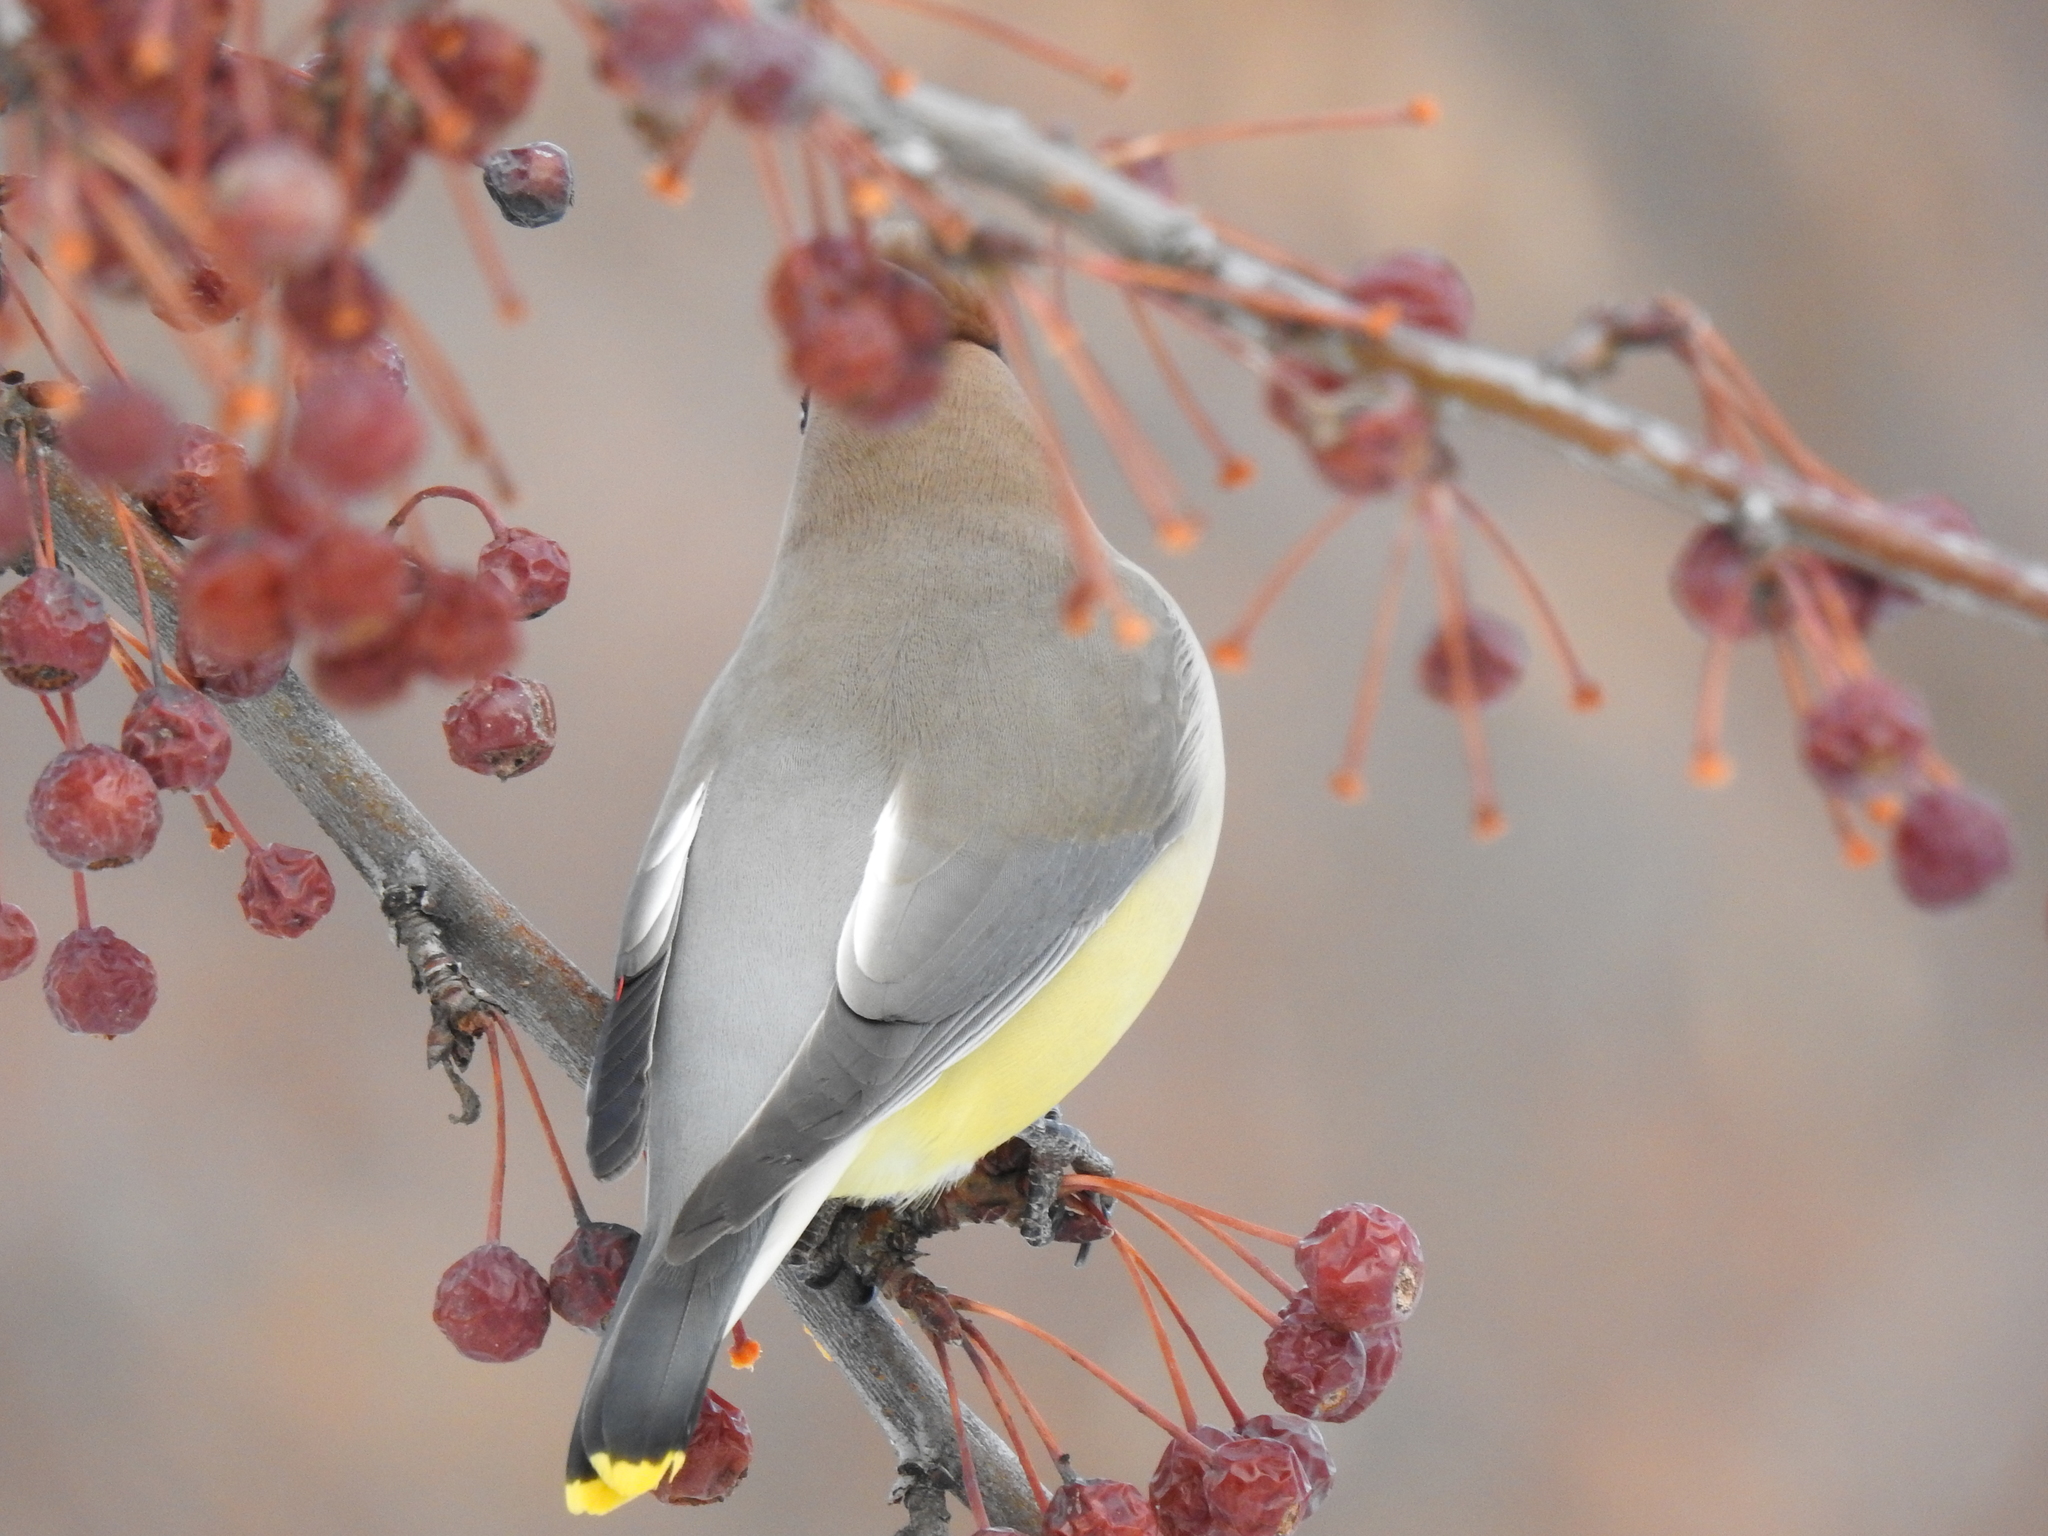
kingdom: Animalia
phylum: Chordata
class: Aves
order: Passeriformes
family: Bombycillidae
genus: Bombycilla
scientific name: Bombycilla cedrorum
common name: Cedar waxwing
